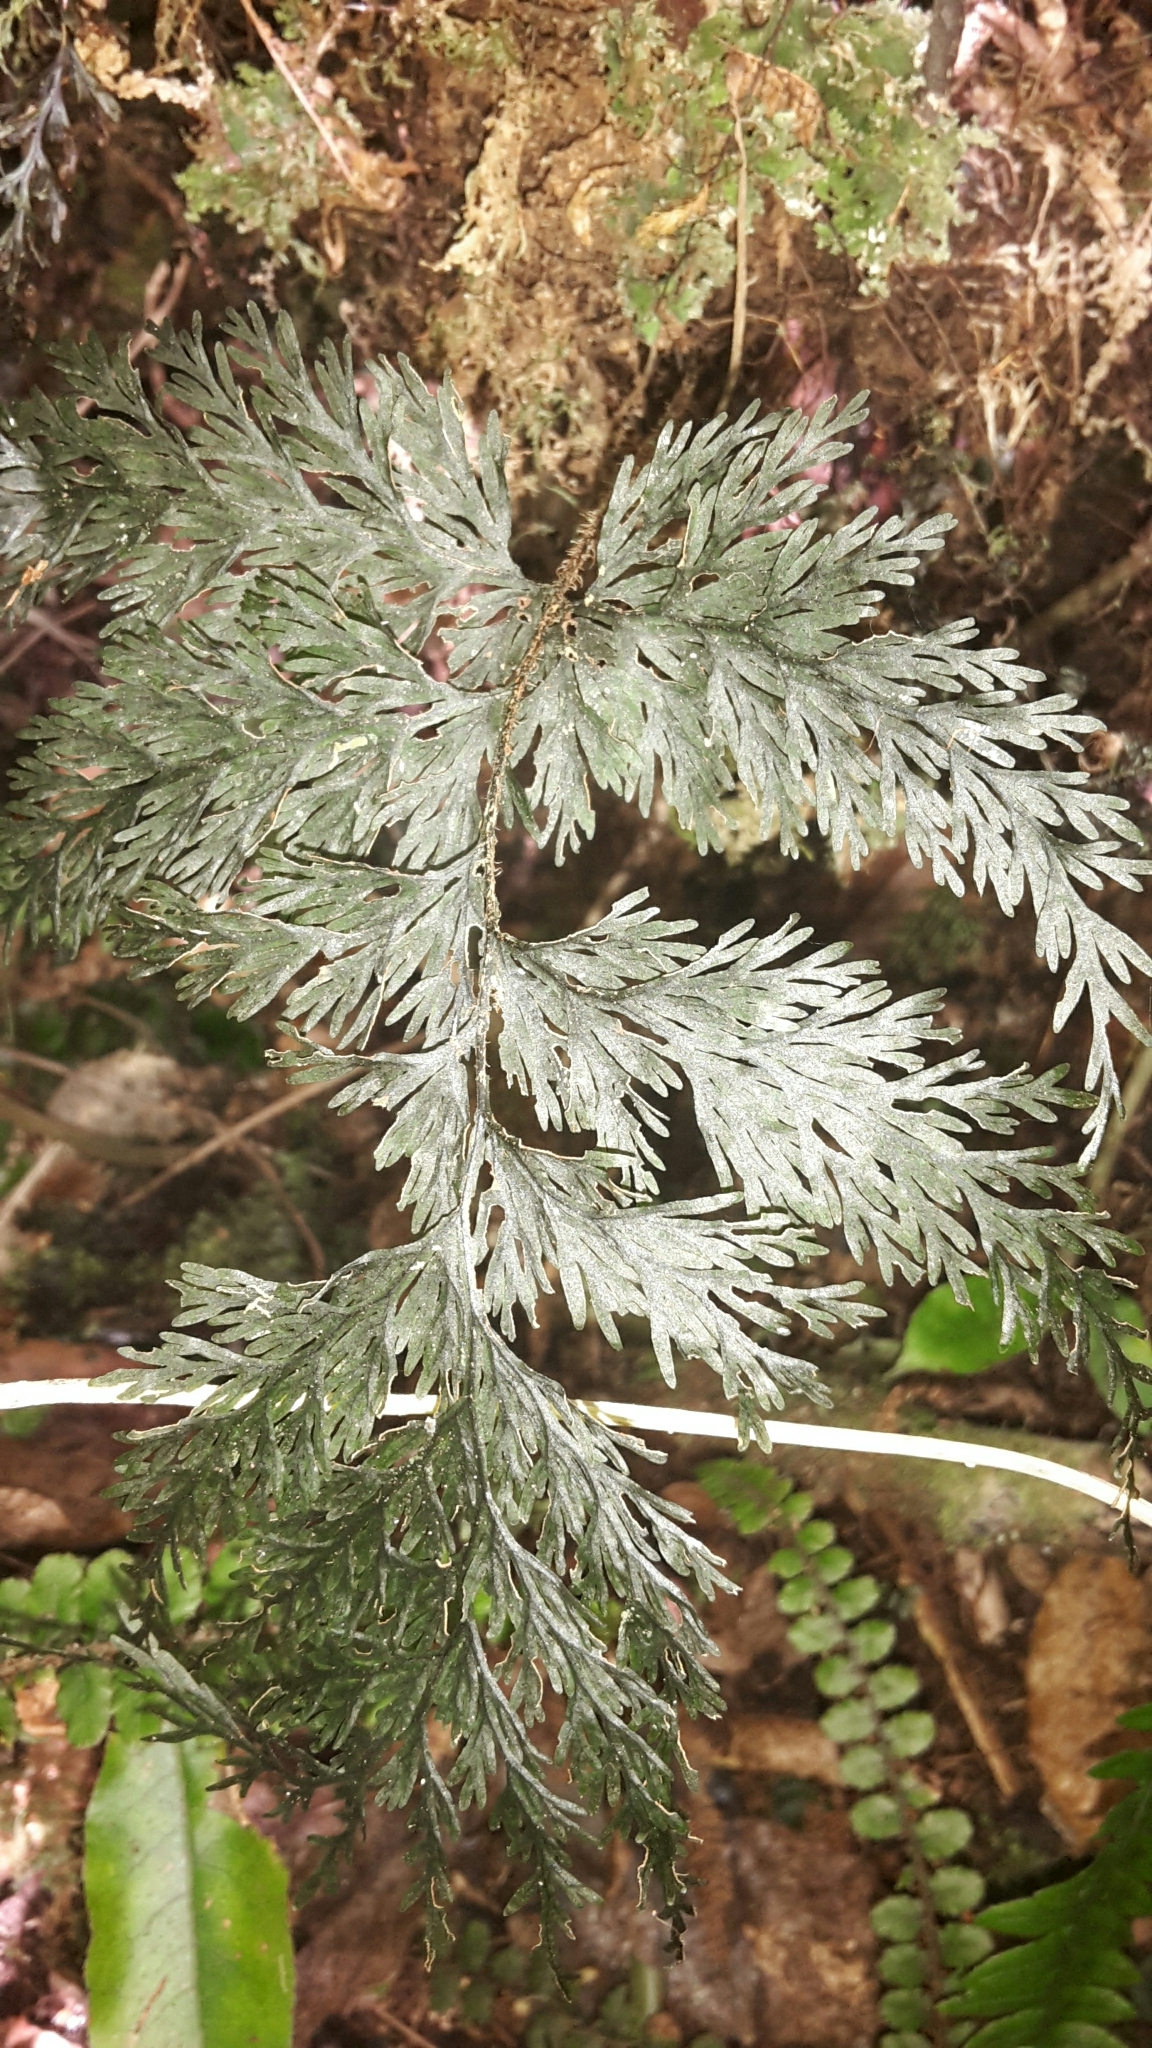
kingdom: Plantae
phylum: Tracheophyta
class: Polypodiopsida
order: Hymenophyllales
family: Hymenophyllaceae
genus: Hymenophyllum
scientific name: Hymenophyllum scabrum
